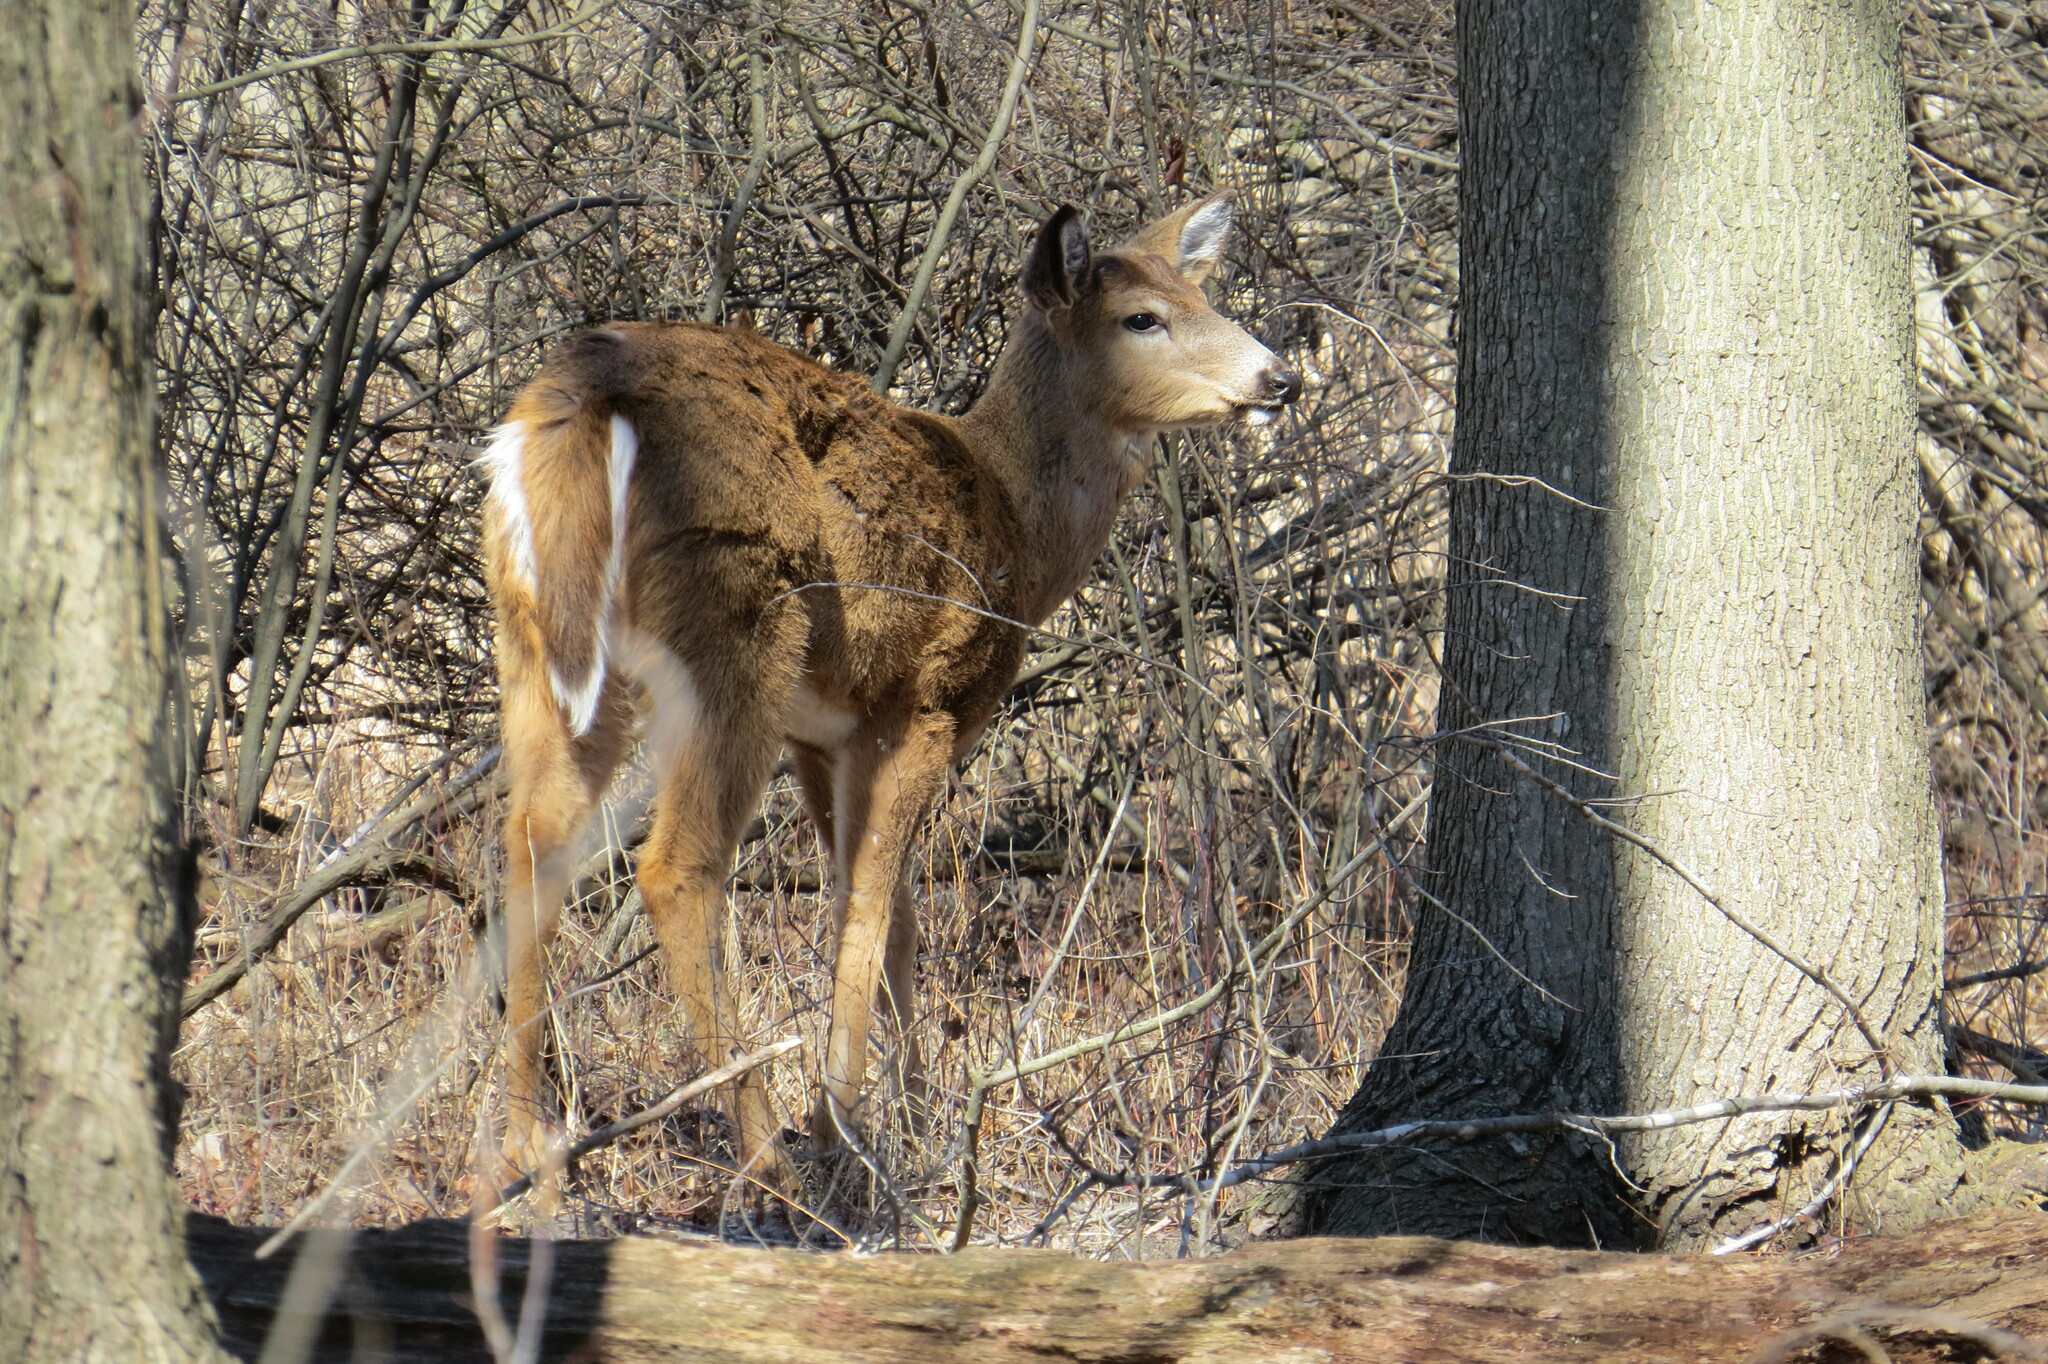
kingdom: Animalia
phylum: Chordata
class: Mammalia
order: Artiodactyla
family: Cervidae
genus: Odocoileus
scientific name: Odocoileus virginianus
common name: White-tailed deer
